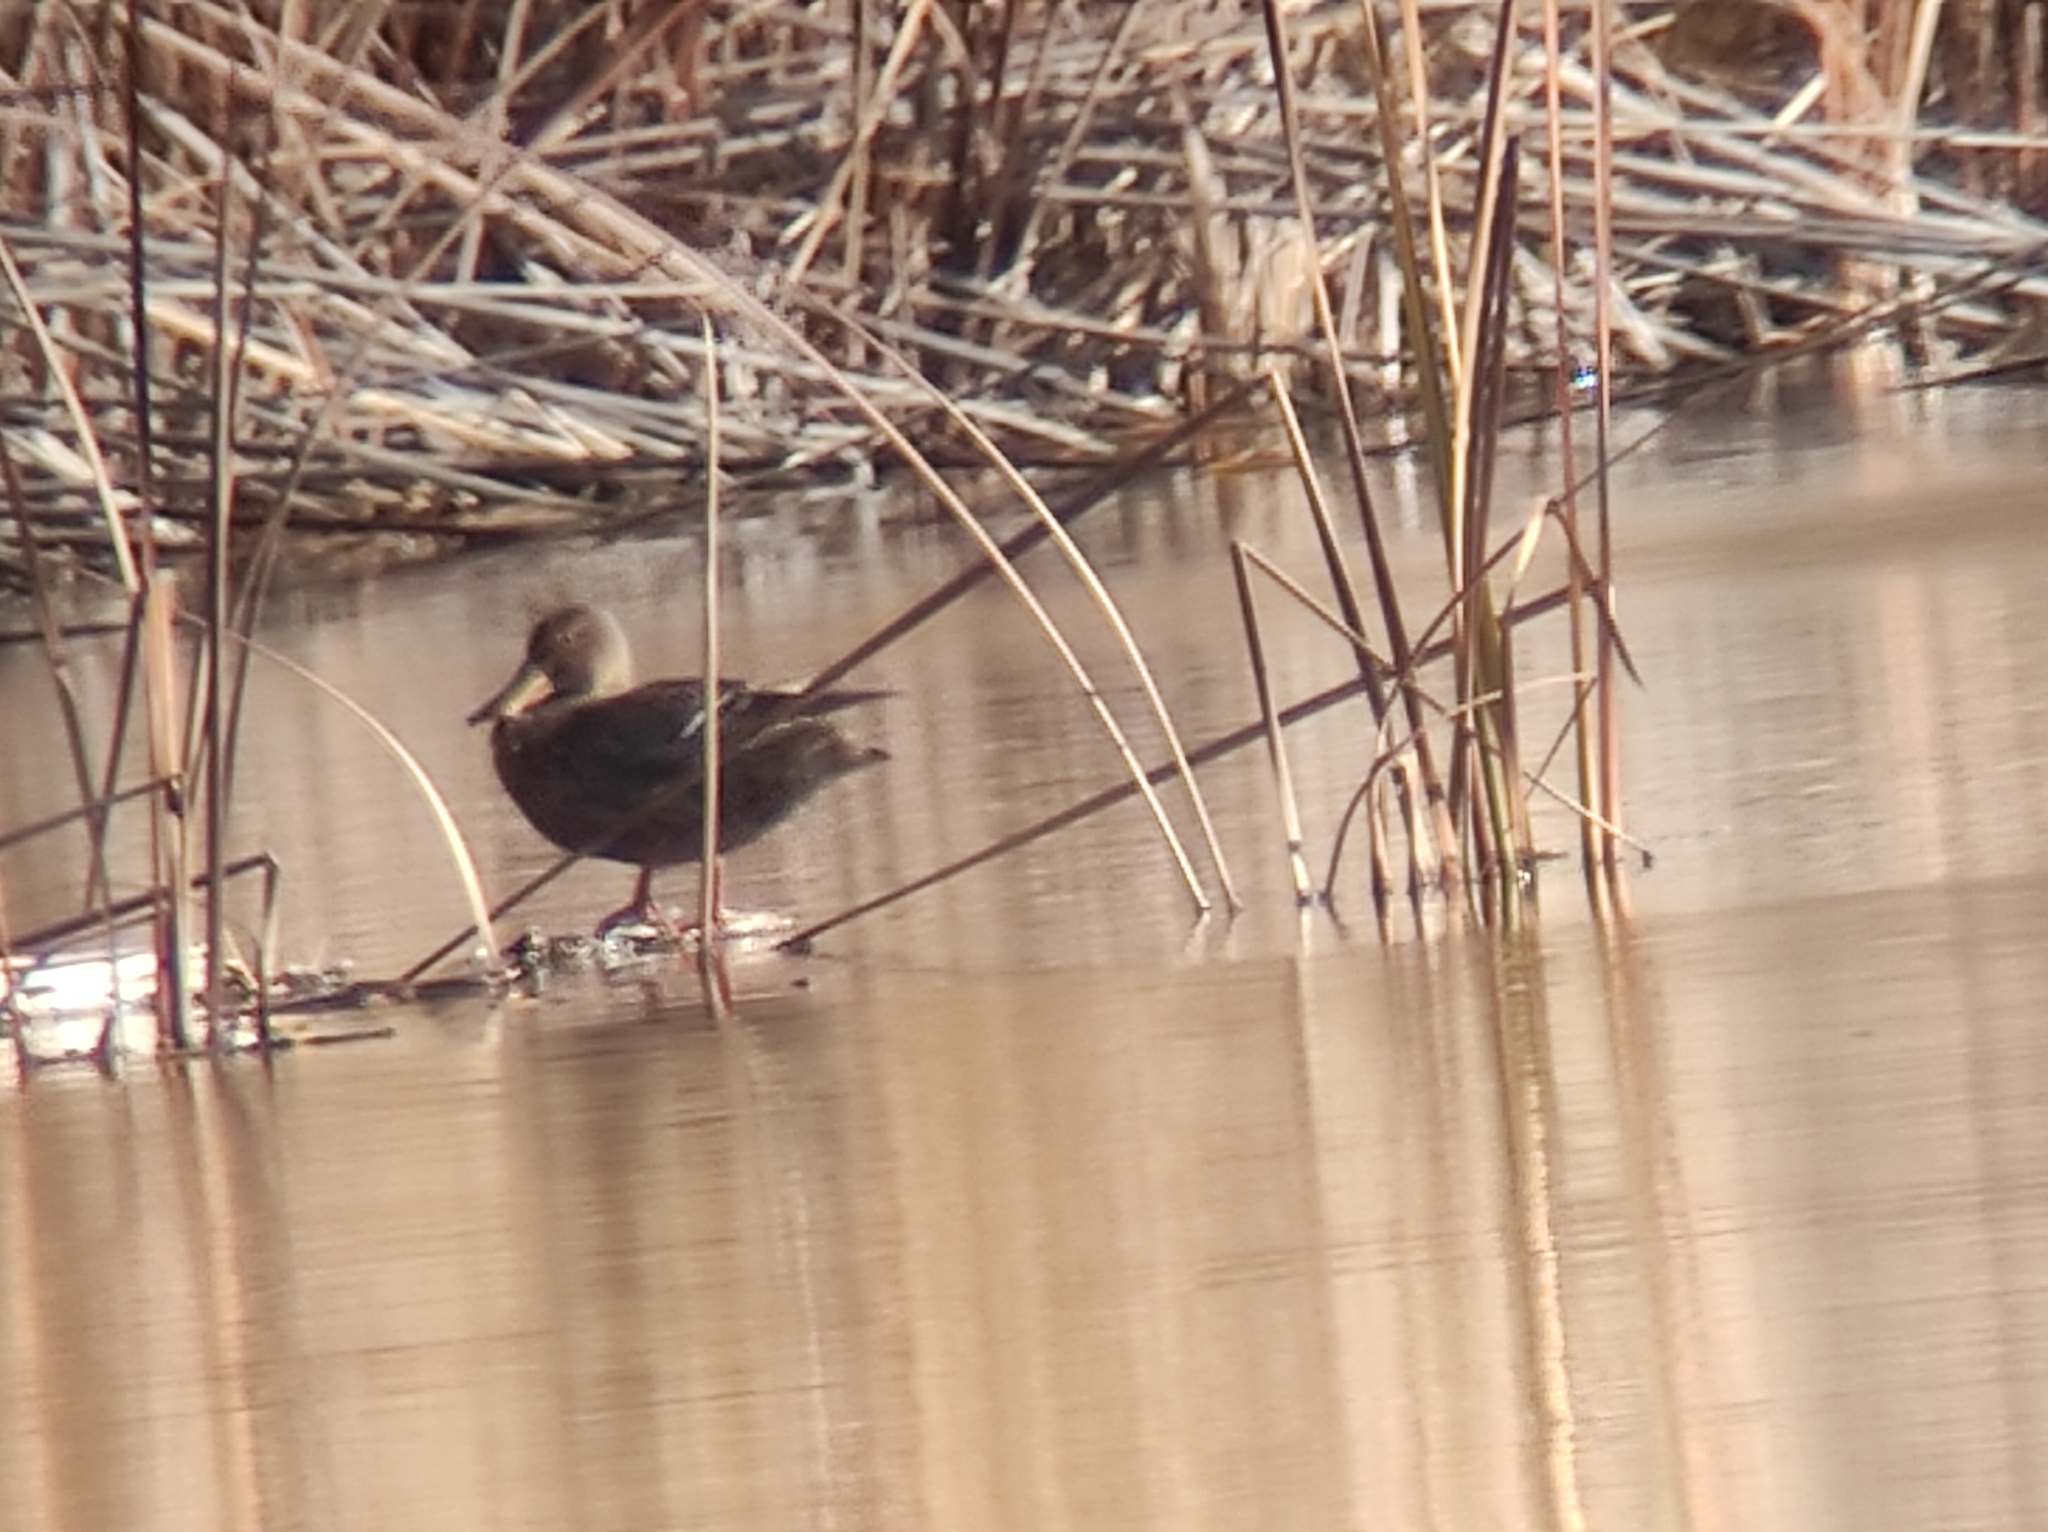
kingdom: Animalia
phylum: Chordata
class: Aves
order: Anseriformes
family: Anatidae
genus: Spatula
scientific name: Spatula clypeata
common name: Northern shoveler
